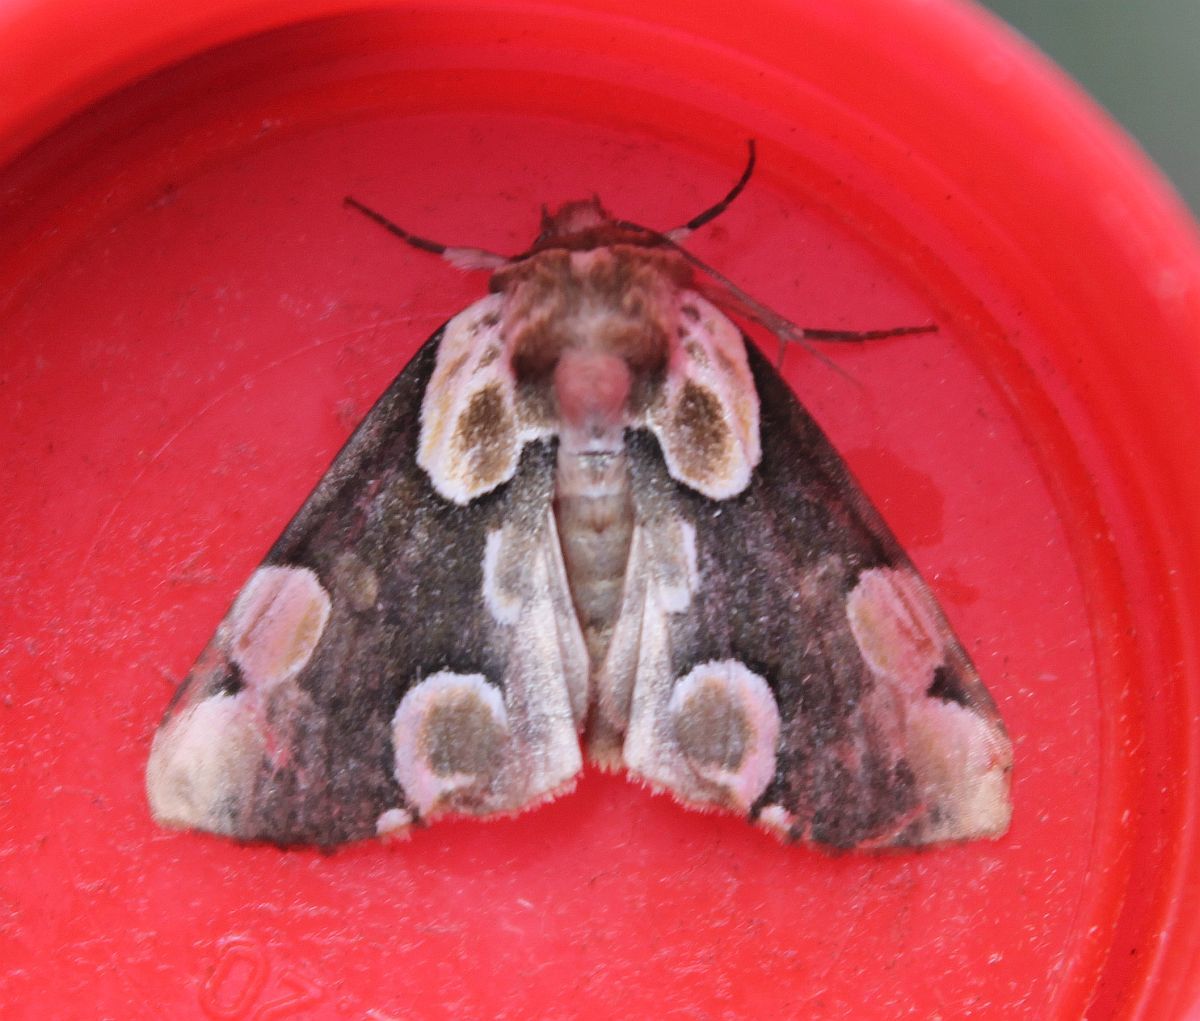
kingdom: Animalia
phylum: Arthropoda
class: Insecta
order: Lepidoptera
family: Drepanidae
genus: Thyatira
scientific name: Thyatira batis
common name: Peach blossom
